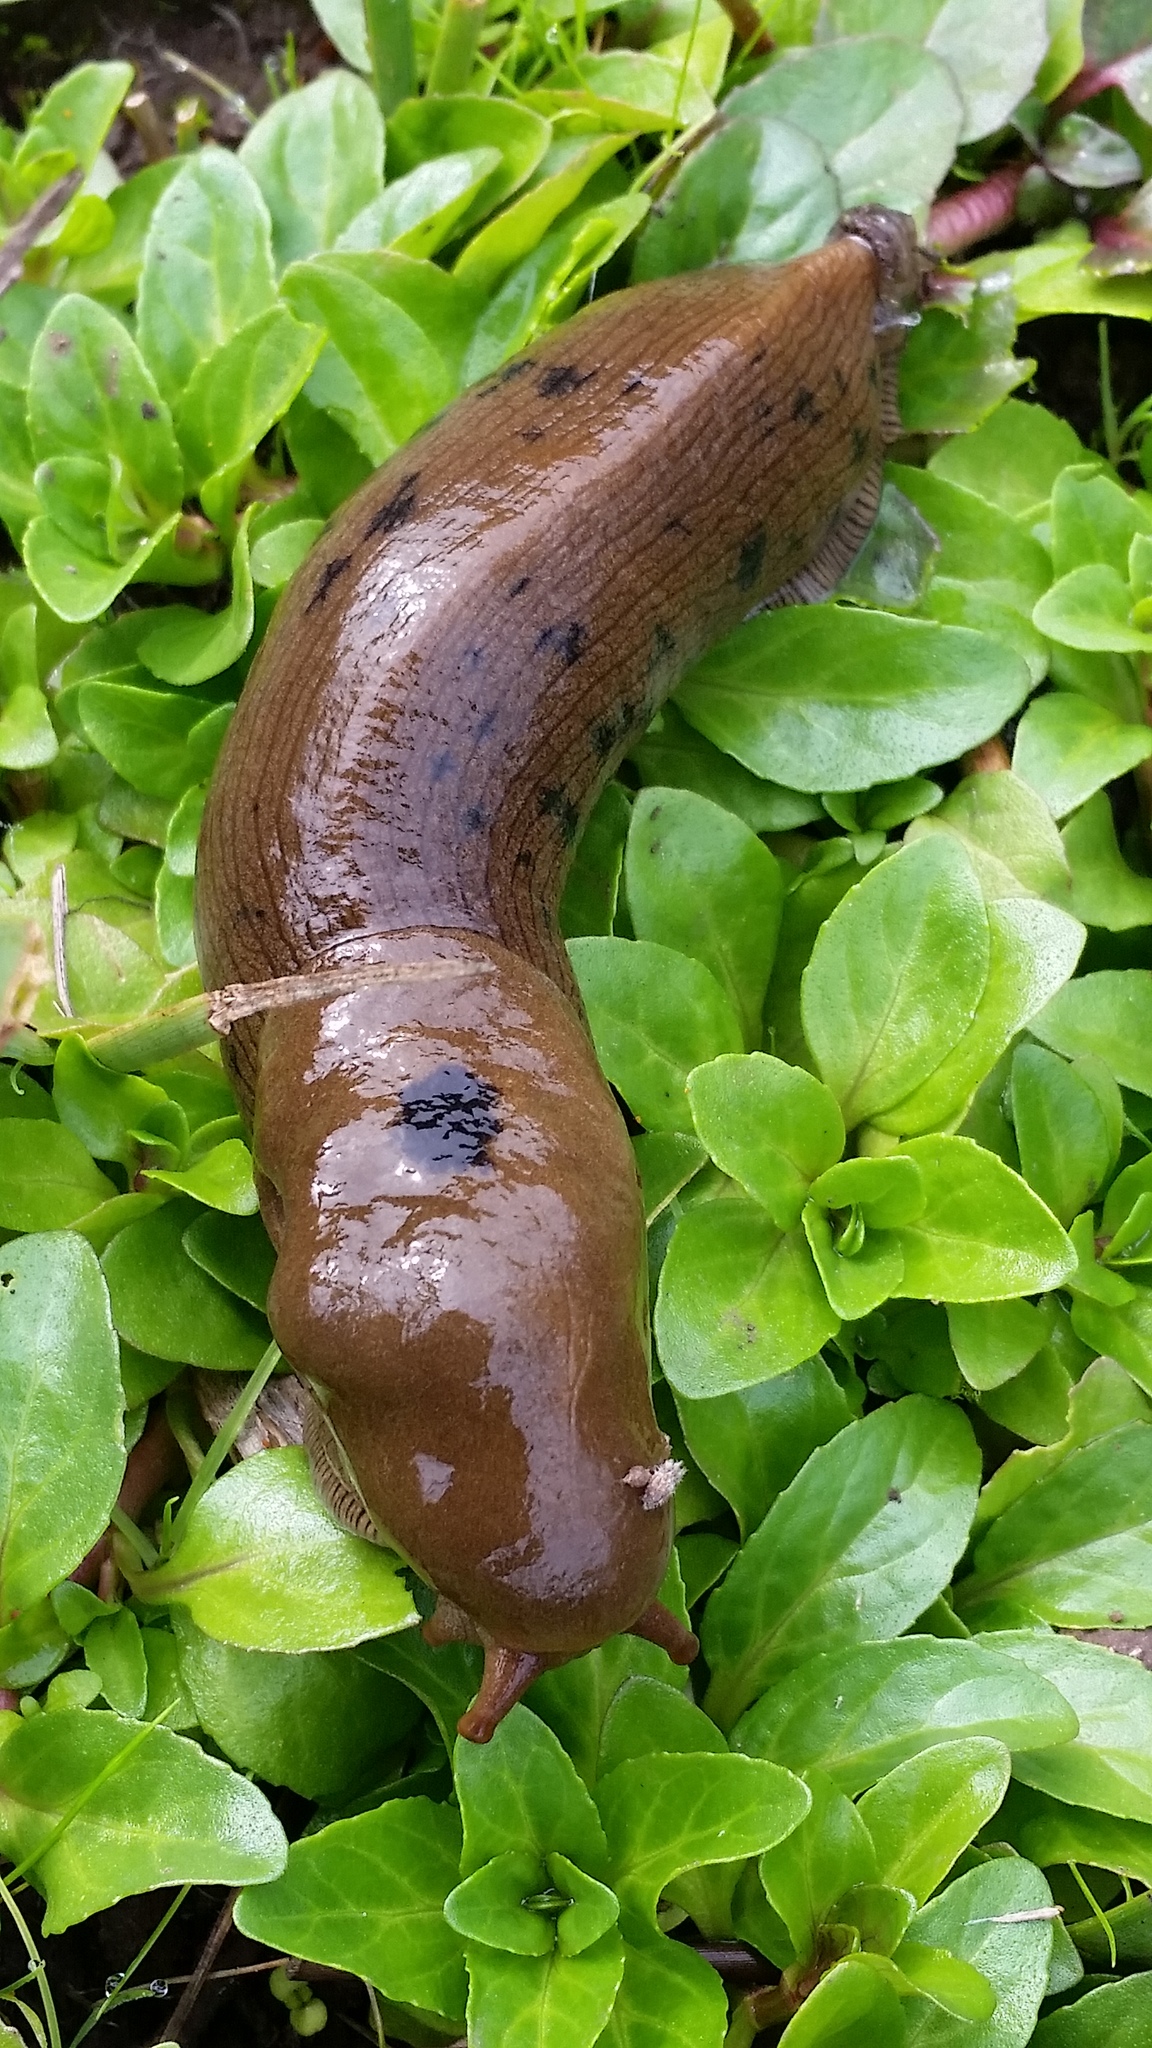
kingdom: Animalia
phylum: Mollusca
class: Gastropoda
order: Stylommatophora
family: Ariolimacidae
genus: Ariolimax
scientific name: Ariolimax buttoni
